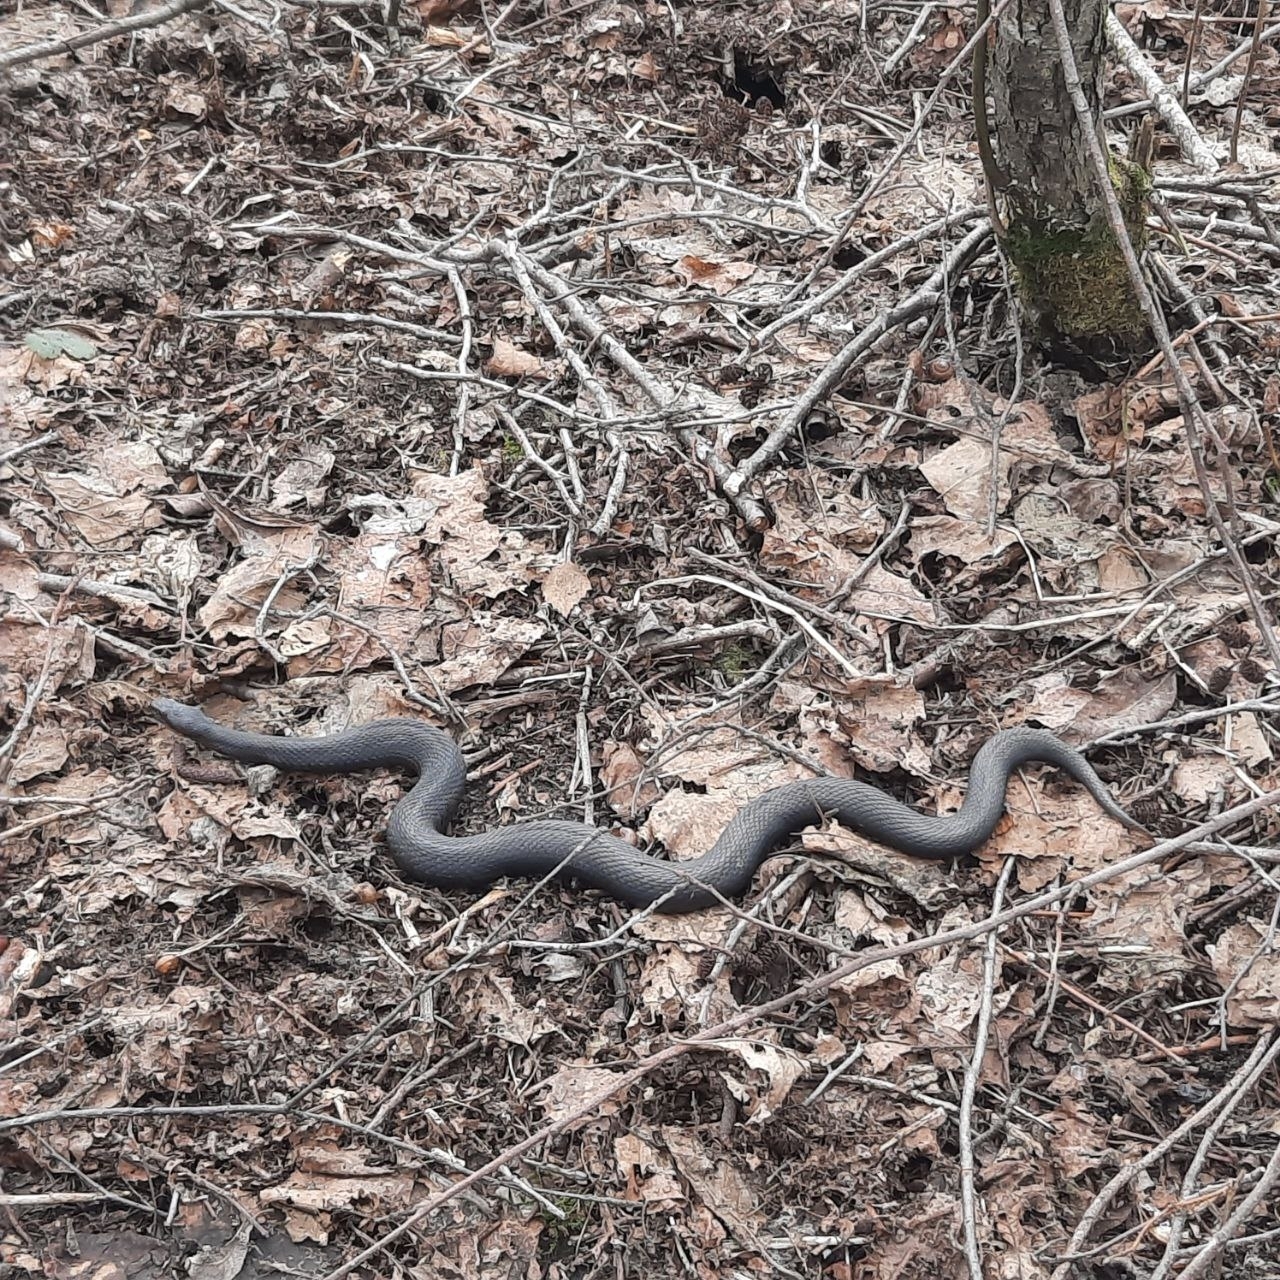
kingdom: Animalia
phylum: Chordata
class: Squamata
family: Viperidae
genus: Vipera
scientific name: Vipera berus
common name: Adder
